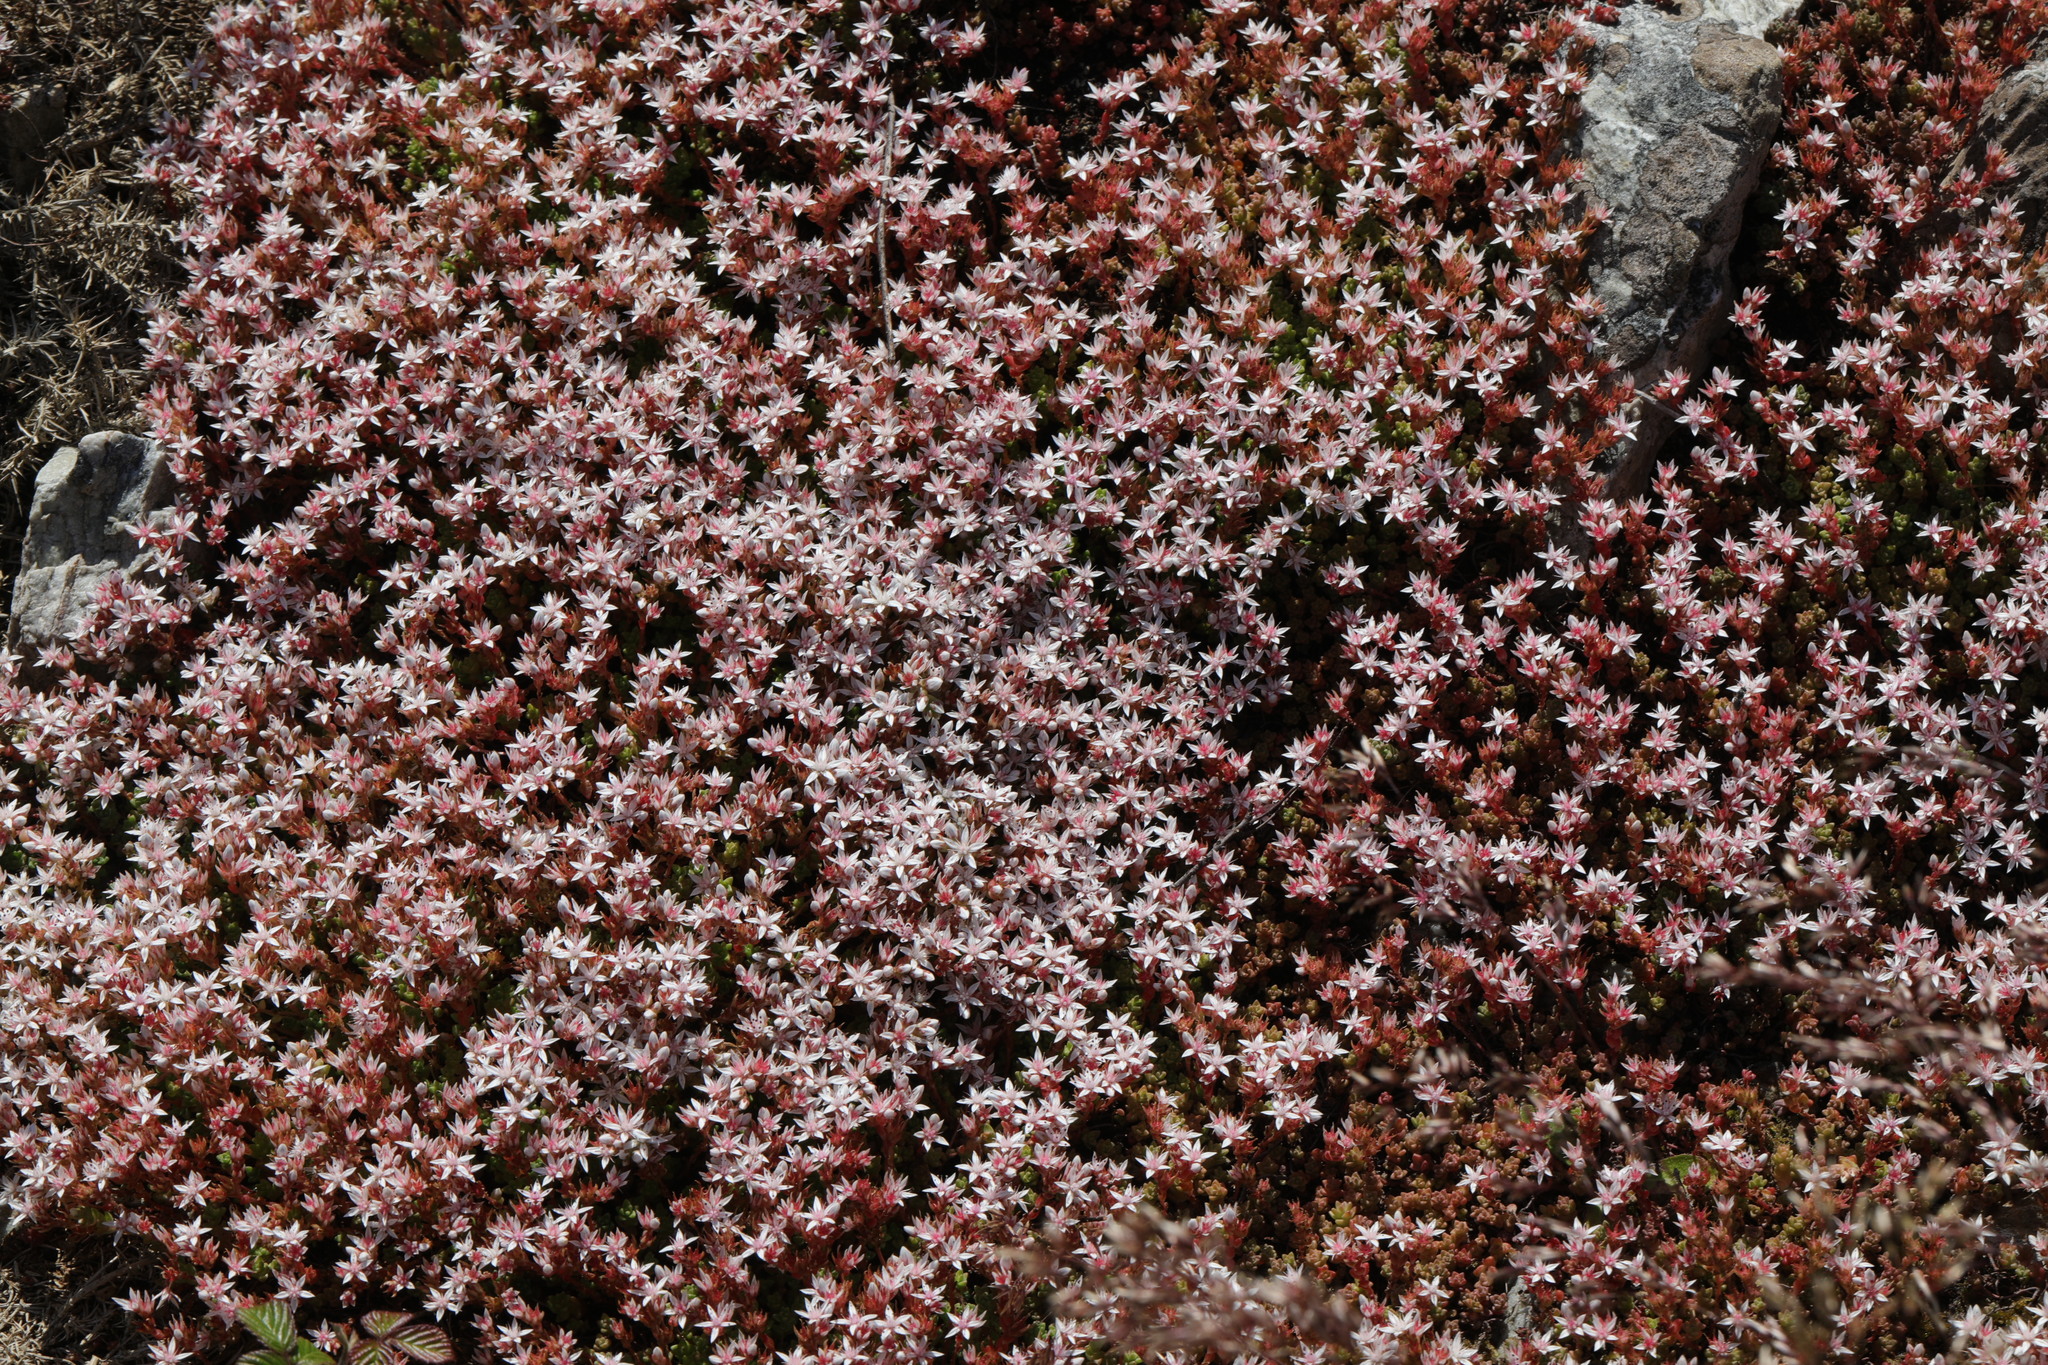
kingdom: Plantae
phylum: Tracheophyta
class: Magnoliopsida
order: Saxifragales
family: Crassulaceae
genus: Sedum
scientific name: Sedum anglicum
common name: English stonecrop
